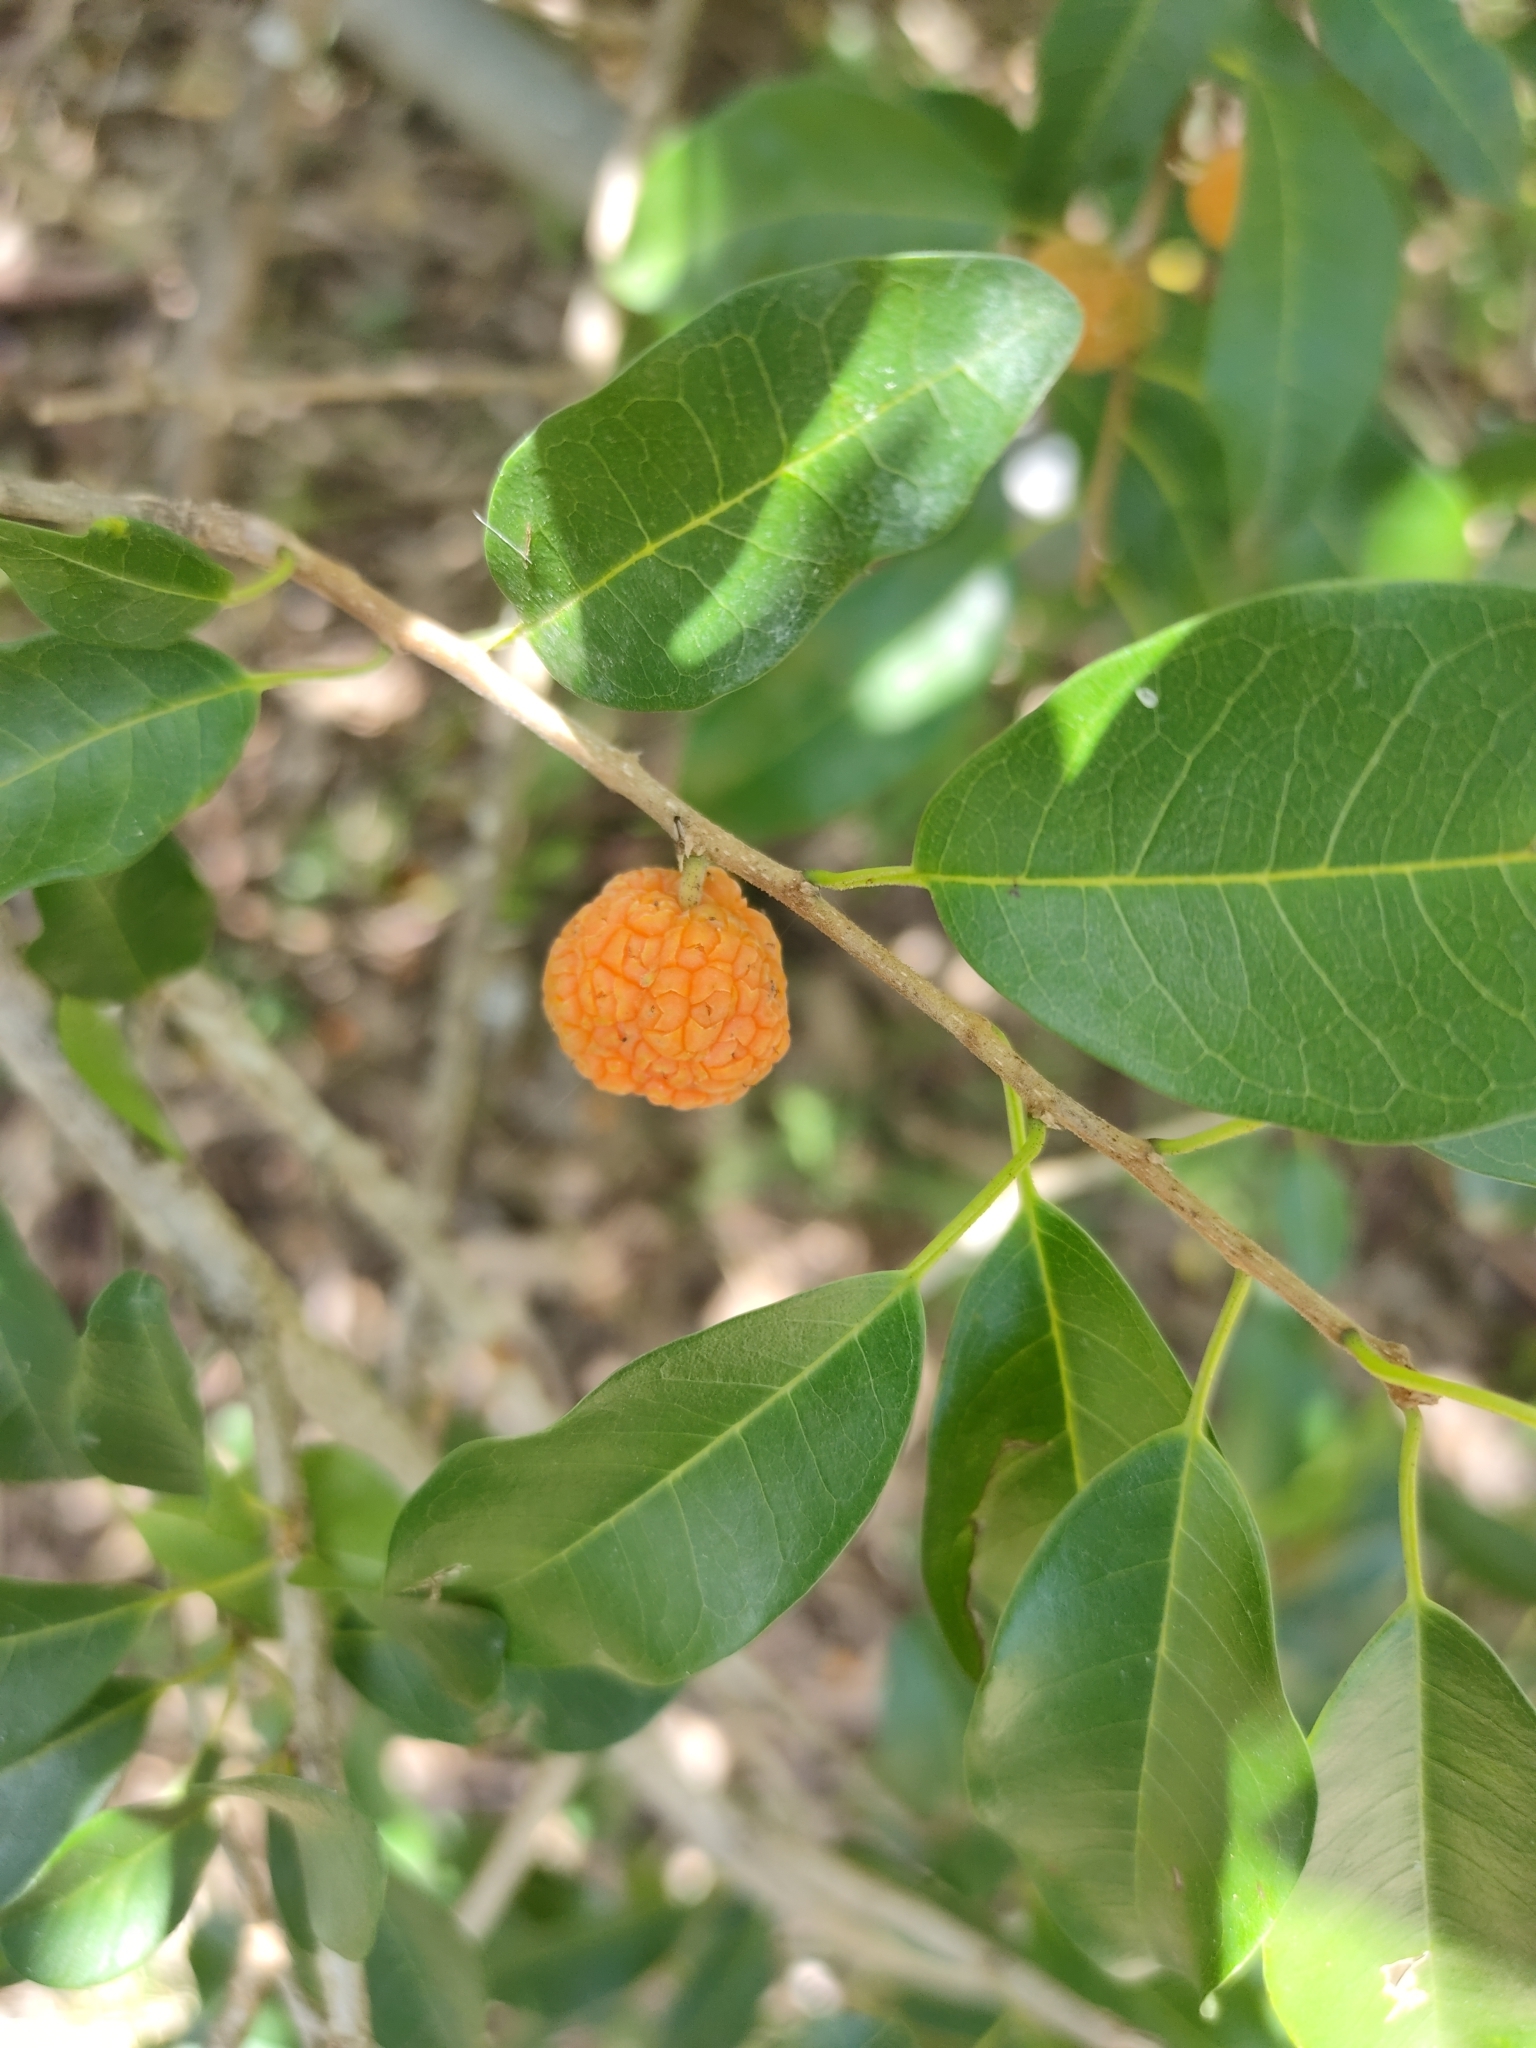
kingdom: Plantae
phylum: Tracheophyta
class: Magnoliopsida
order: Rosales
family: Moraceae
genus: Maclura
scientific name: Maclura cochinchinensis
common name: Cockspurthorn
